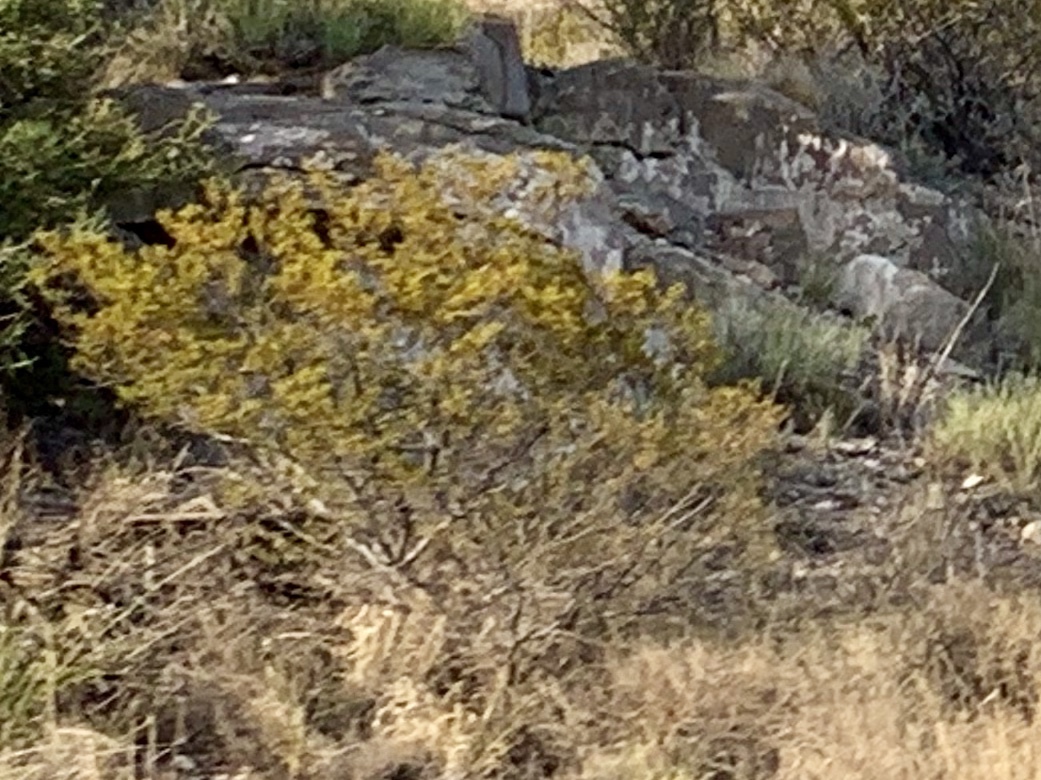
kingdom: Plantae
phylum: Tracheophyta
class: Magnoliopsida
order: Zygophyllales
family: Zygophyllaceae
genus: Larrea
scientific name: Larrea tridentata
